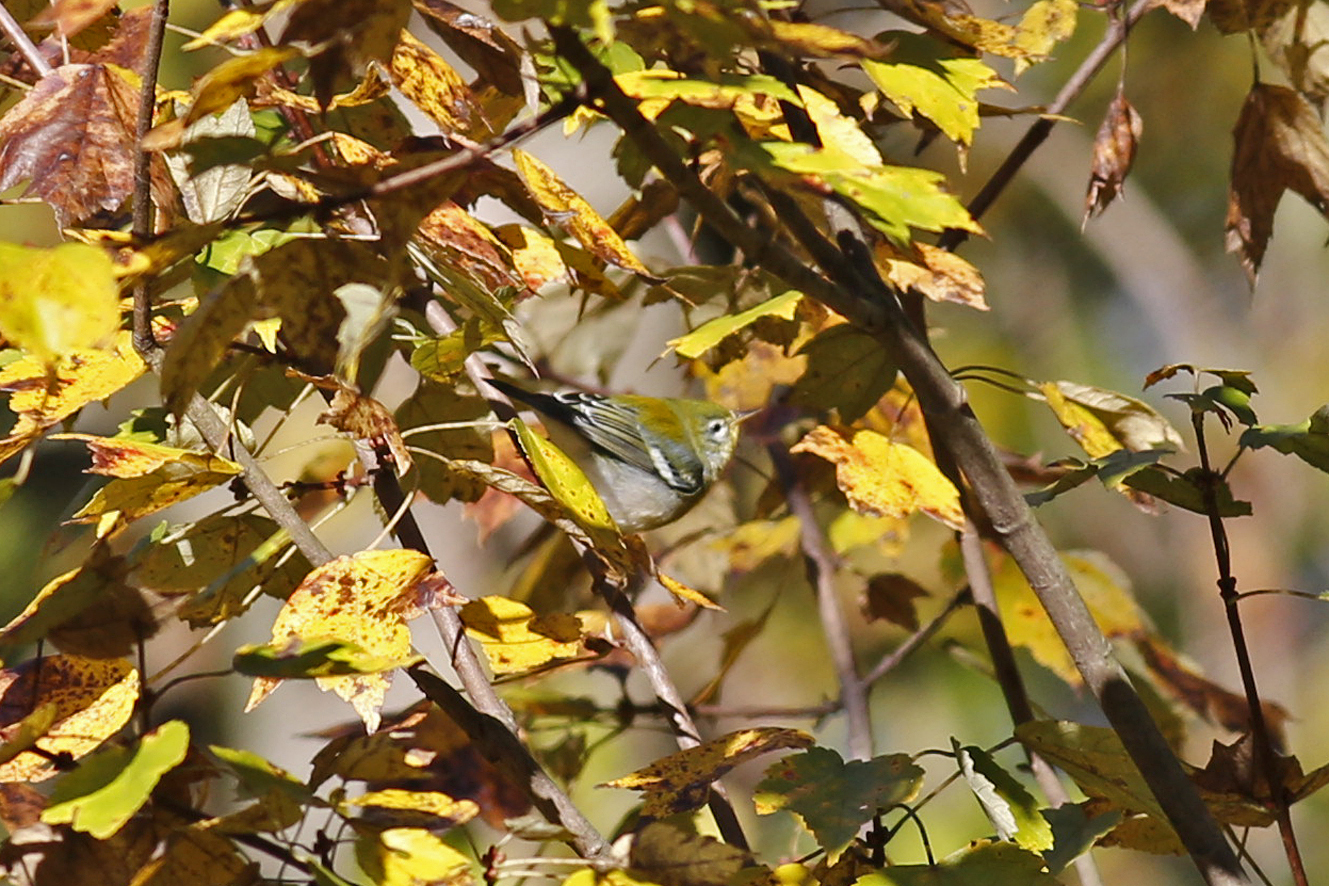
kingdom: Animalia
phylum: Chordata
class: Aves
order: Passeriformes
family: Parulidae
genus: Setophaga
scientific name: Setophaga americana
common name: Northern parula
